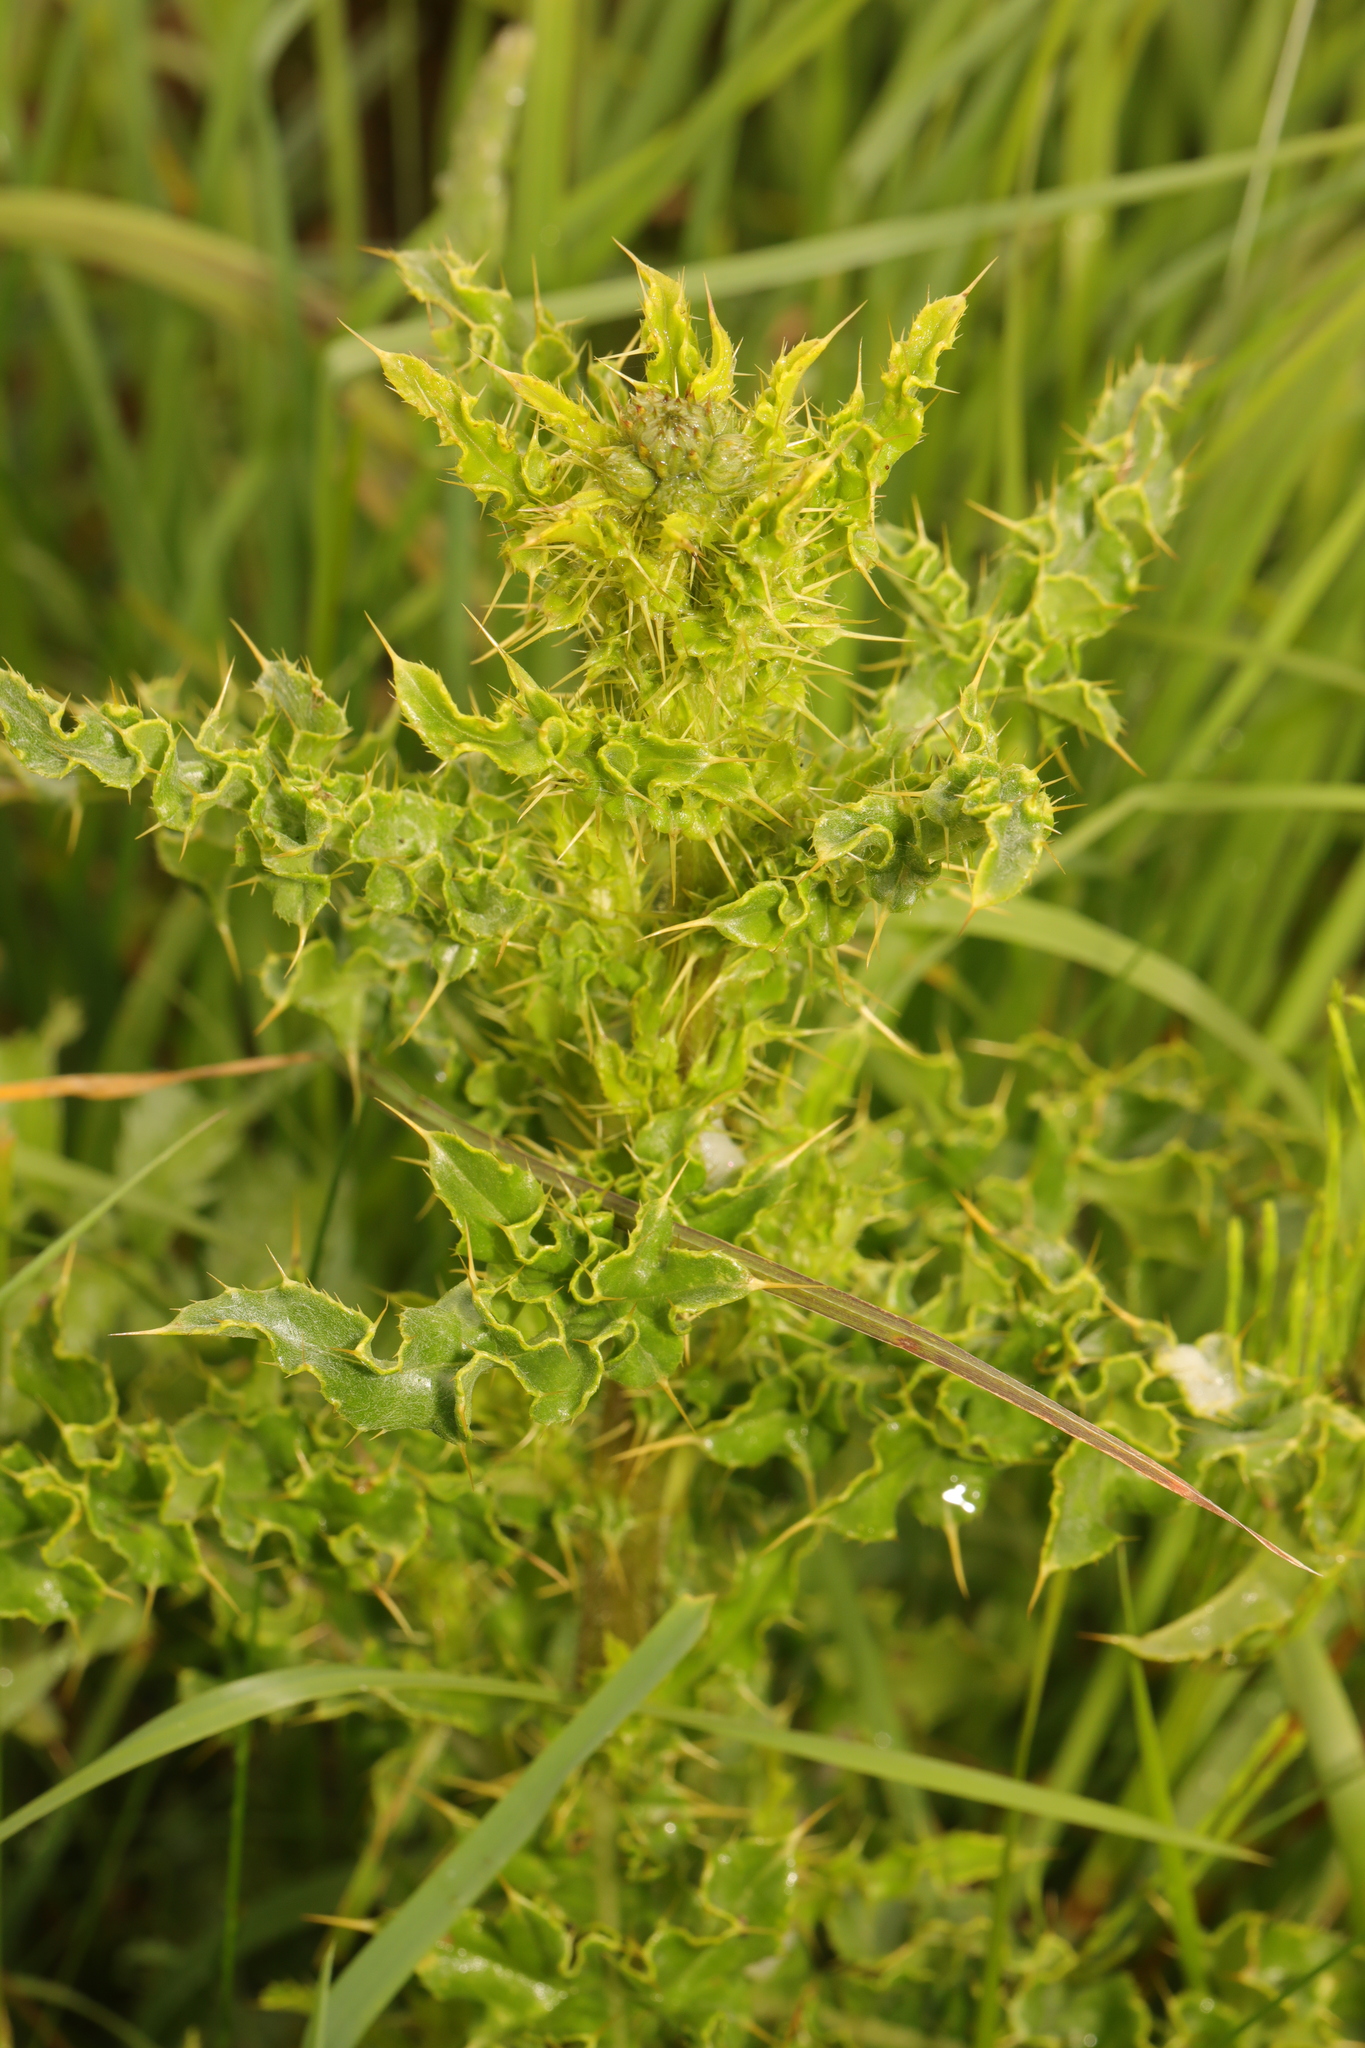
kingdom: Plantae
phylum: Tracheophyta
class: Magnoliopsida
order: Asterales
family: Asteraceae
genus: Cirsium
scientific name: Cirsium arvense
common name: Creeping thistle
